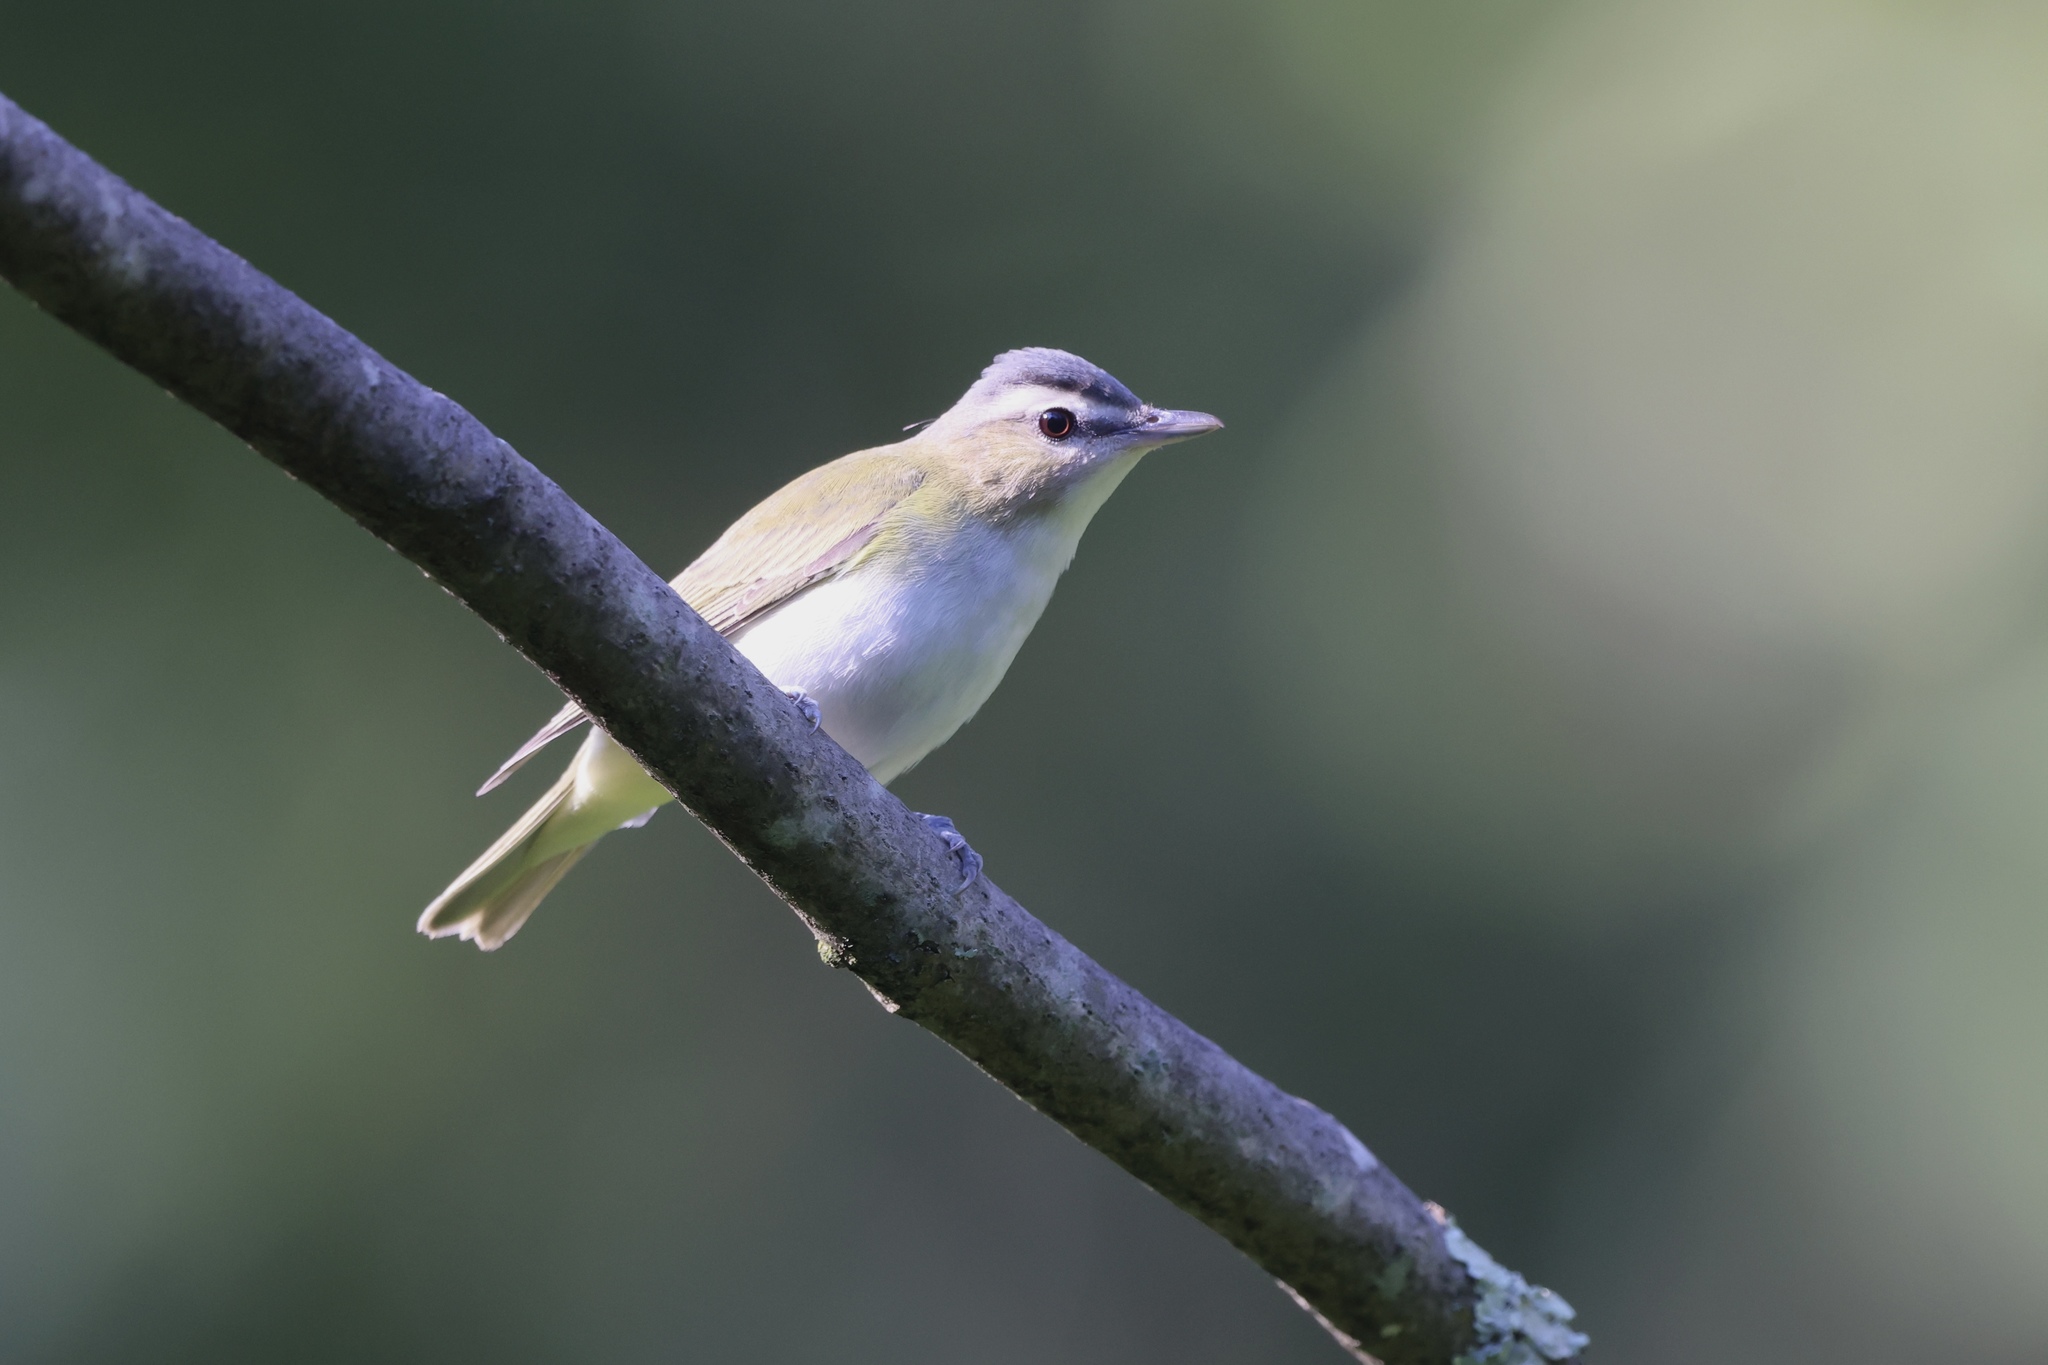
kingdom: Animalia
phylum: Chordata
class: Aves
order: Passeriformes
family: Vireonidae
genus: Vireo
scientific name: Vireo olivaceus
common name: Red-eyed vireo
